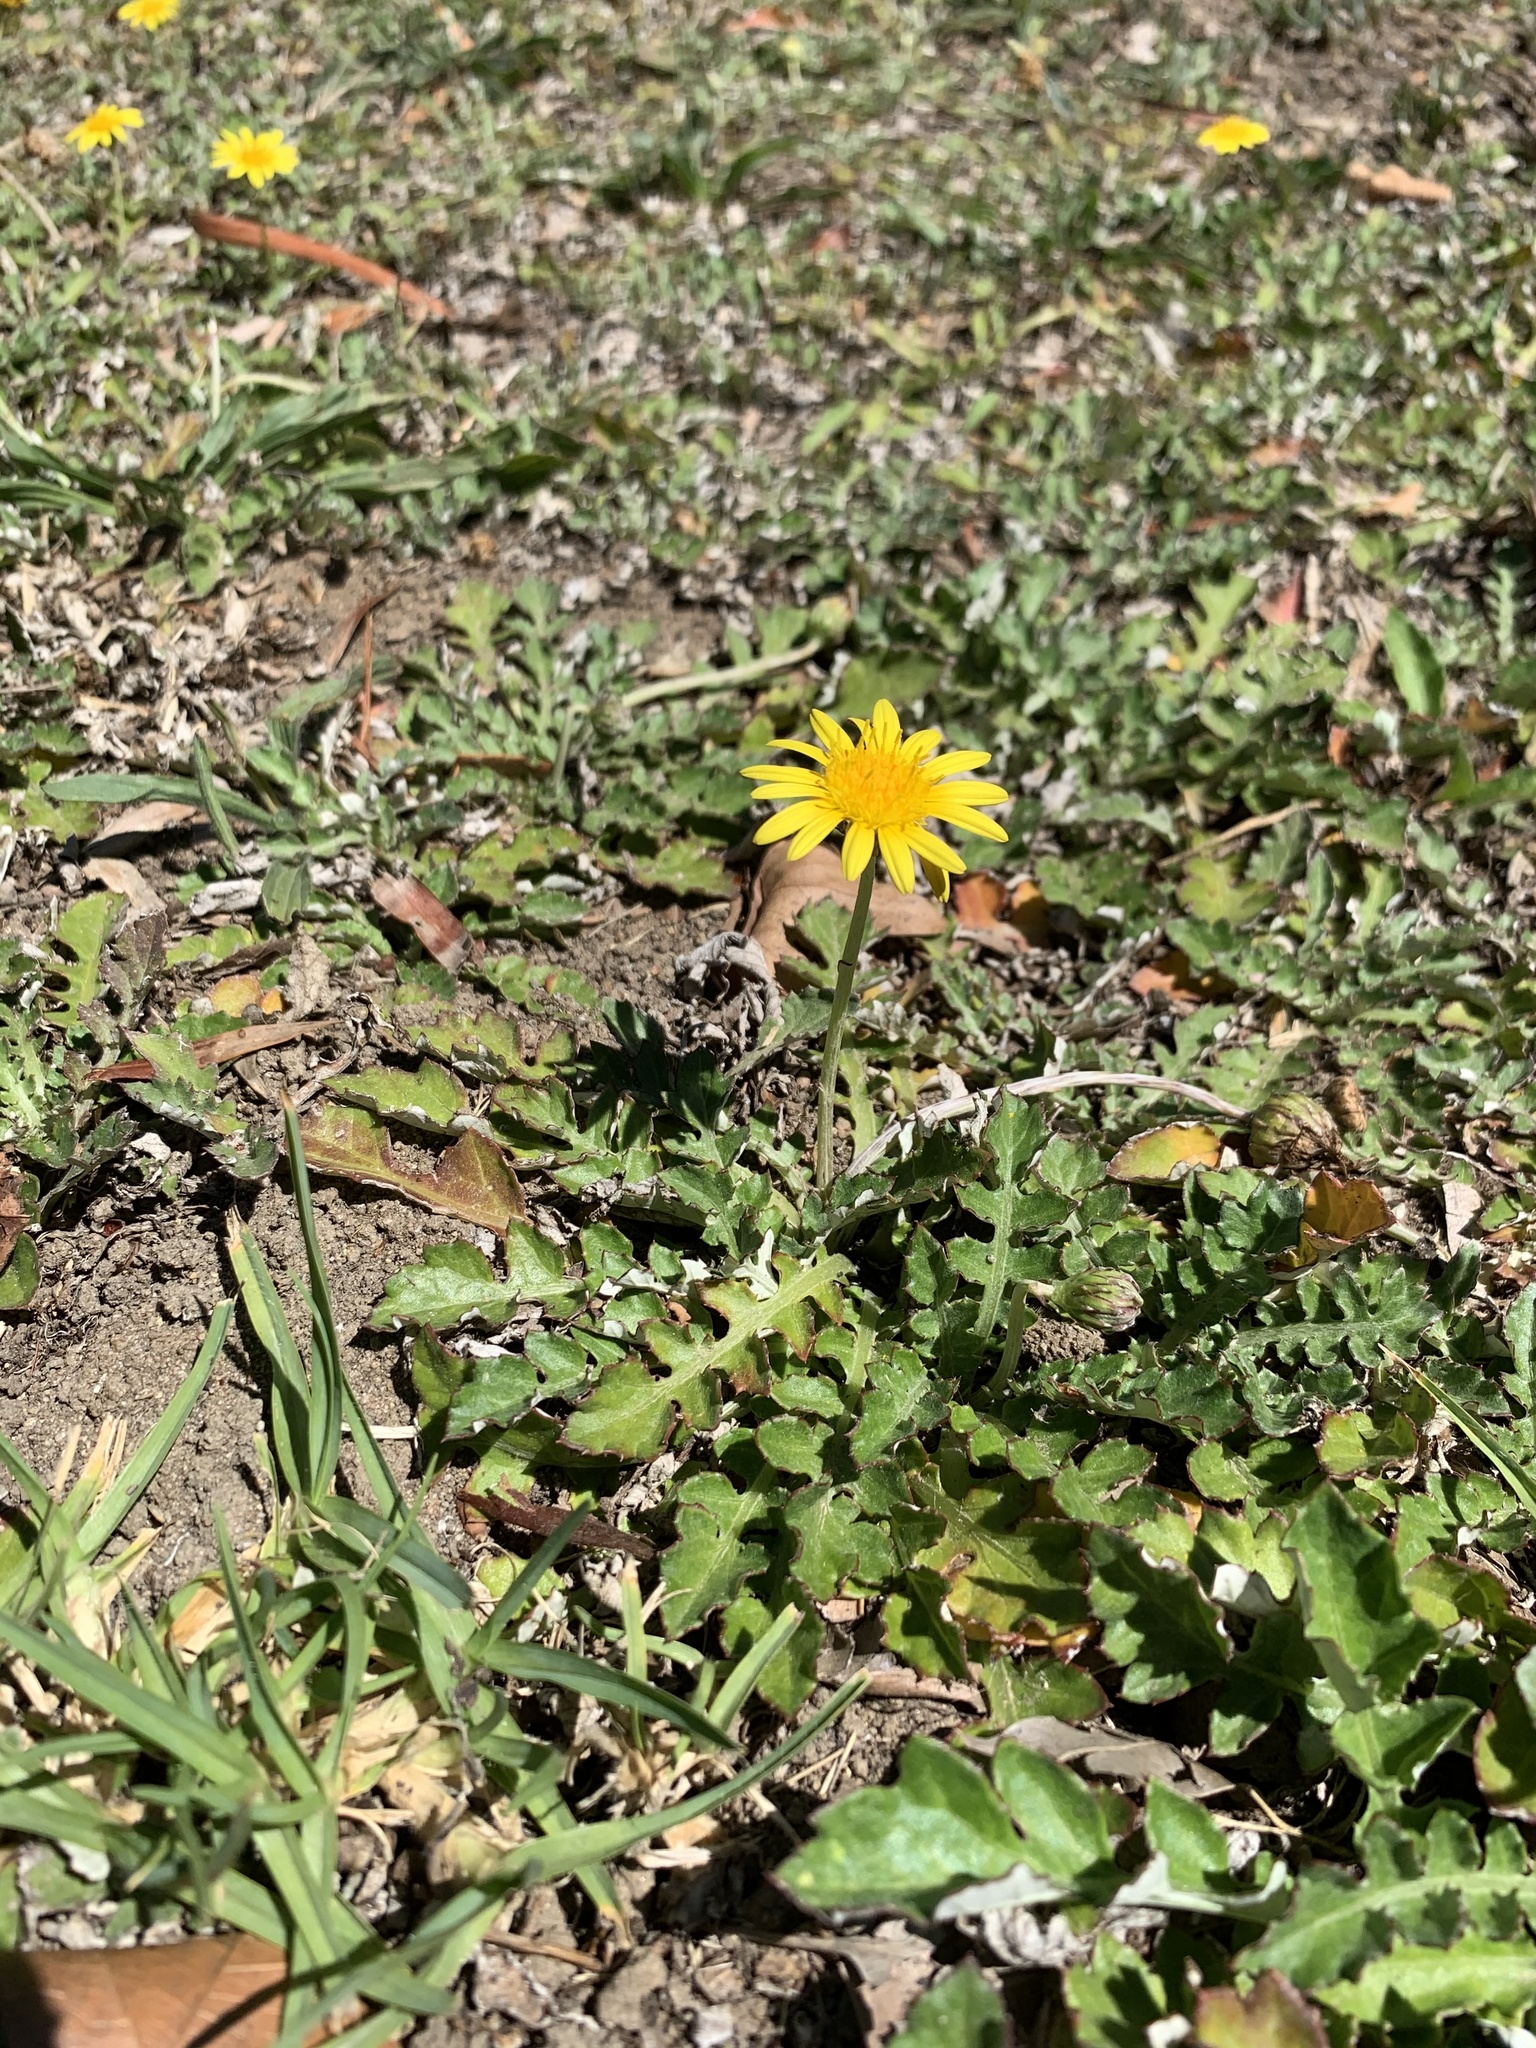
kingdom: Plantae
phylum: Tracheophyta
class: Magnoliopsida
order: Asterales
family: Asteraceae
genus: Arctotheca
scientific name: Arctotheca prostrata
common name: Capeweed
